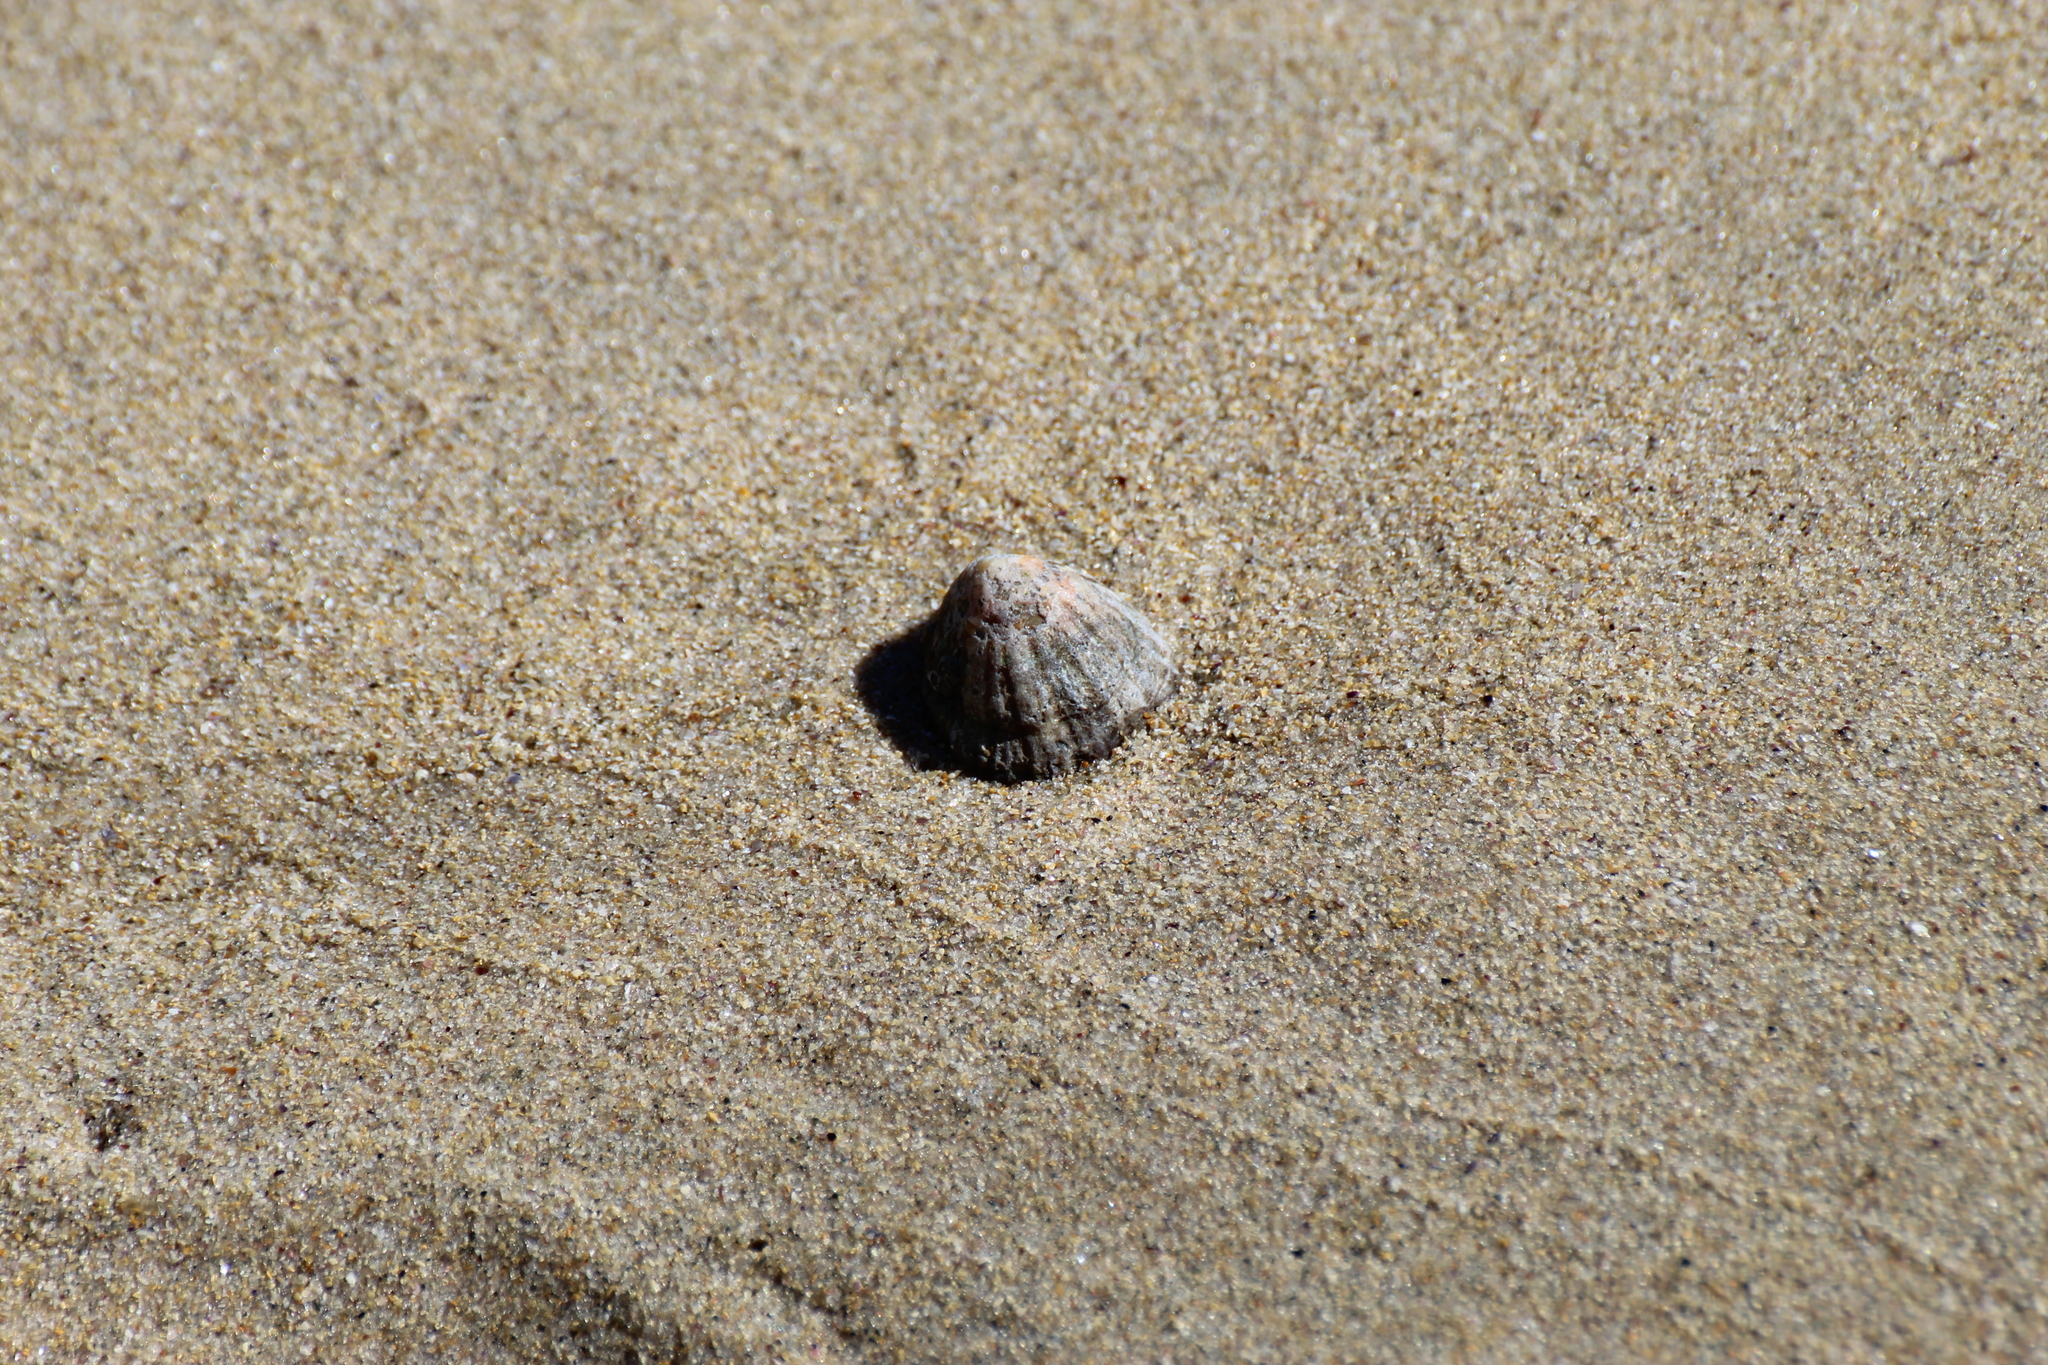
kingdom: Animalia
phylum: Mollusca
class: Gastropoda
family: Patellidae
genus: Patella
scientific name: Patella vulgata
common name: Common limpet
